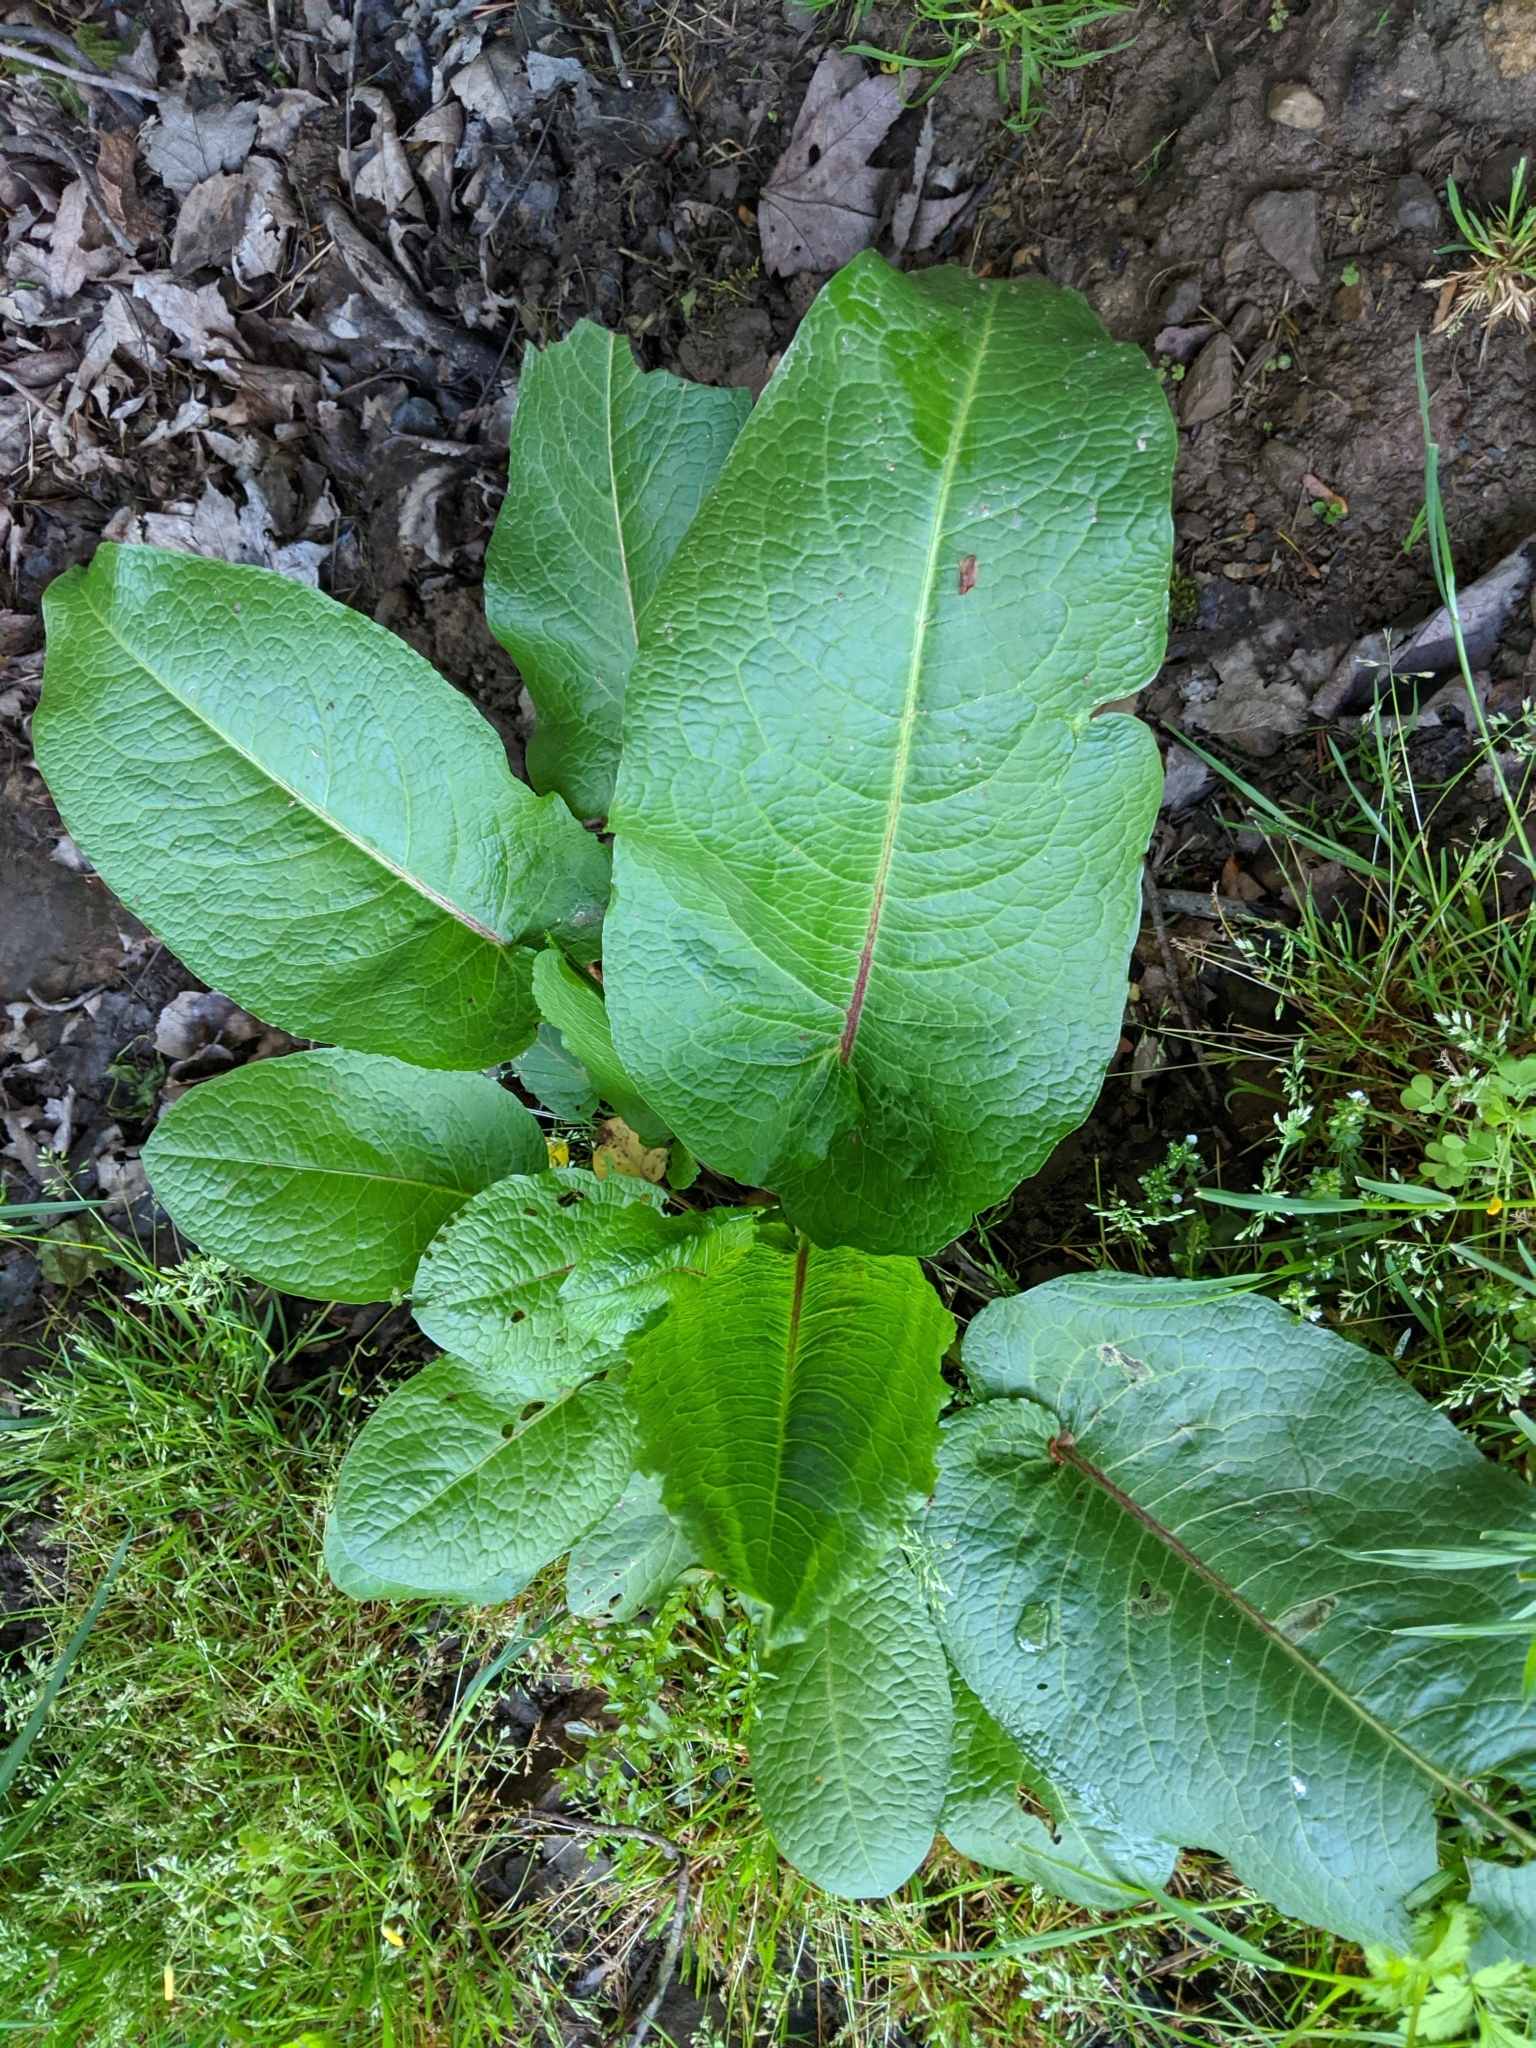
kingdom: Plantae
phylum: Tracheophyta
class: Magnoliopsida
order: Caryophyllales
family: Polygonaceae
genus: Rumex
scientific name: Rumex obtusifolius
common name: Bitter dock
